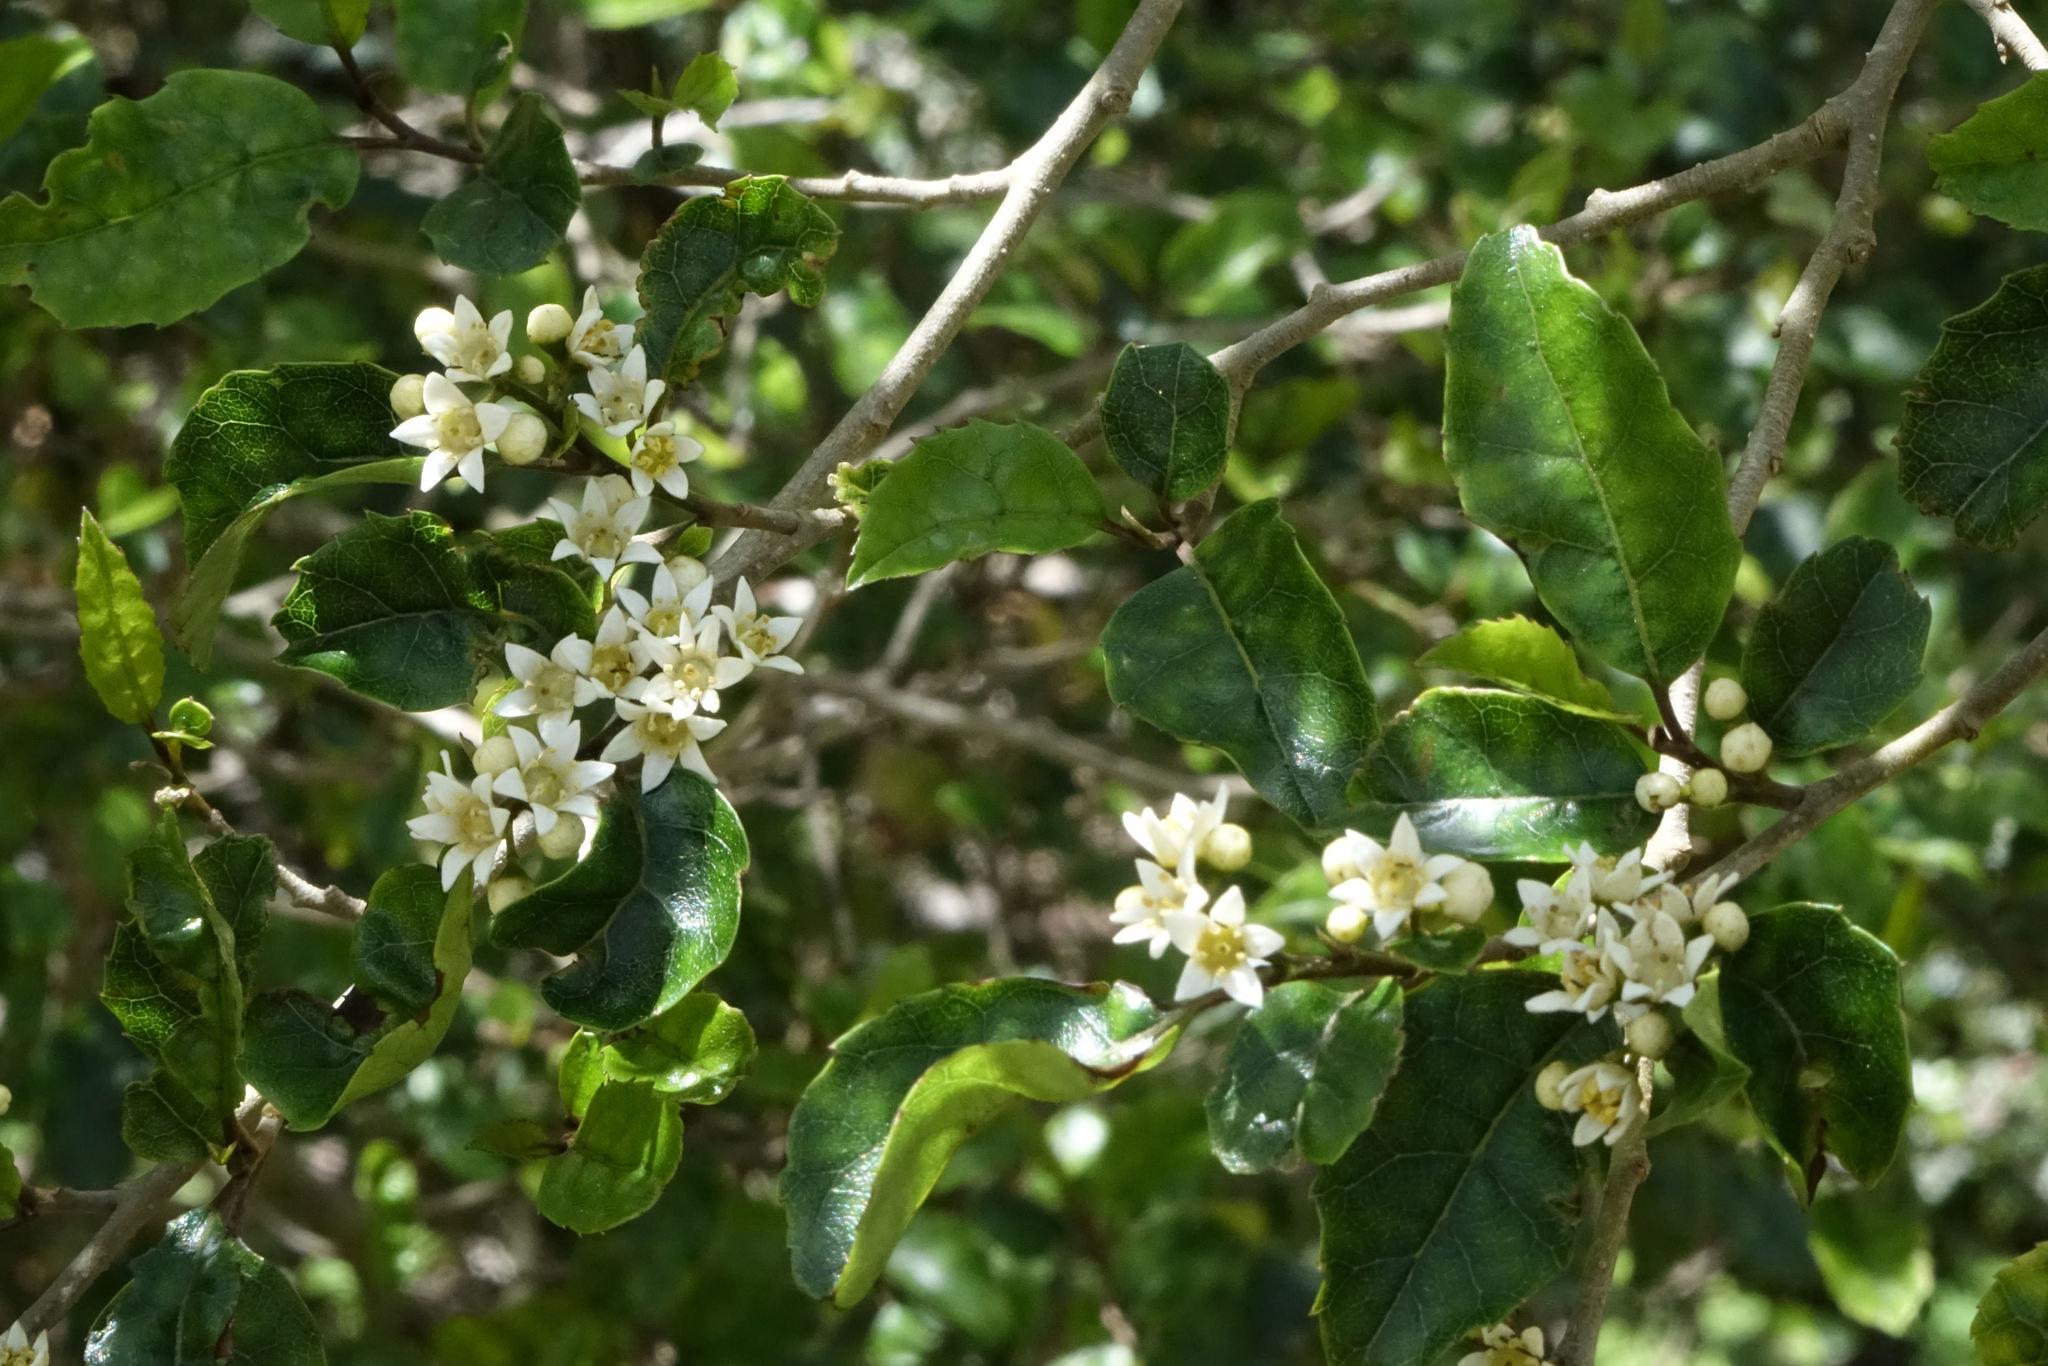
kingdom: Plantae
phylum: Tracheophyta
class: Magnoliopsida
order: Asterales
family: Rousseaceae
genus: Carpodetus
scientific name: Carpodetus serratus
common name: White mapau
